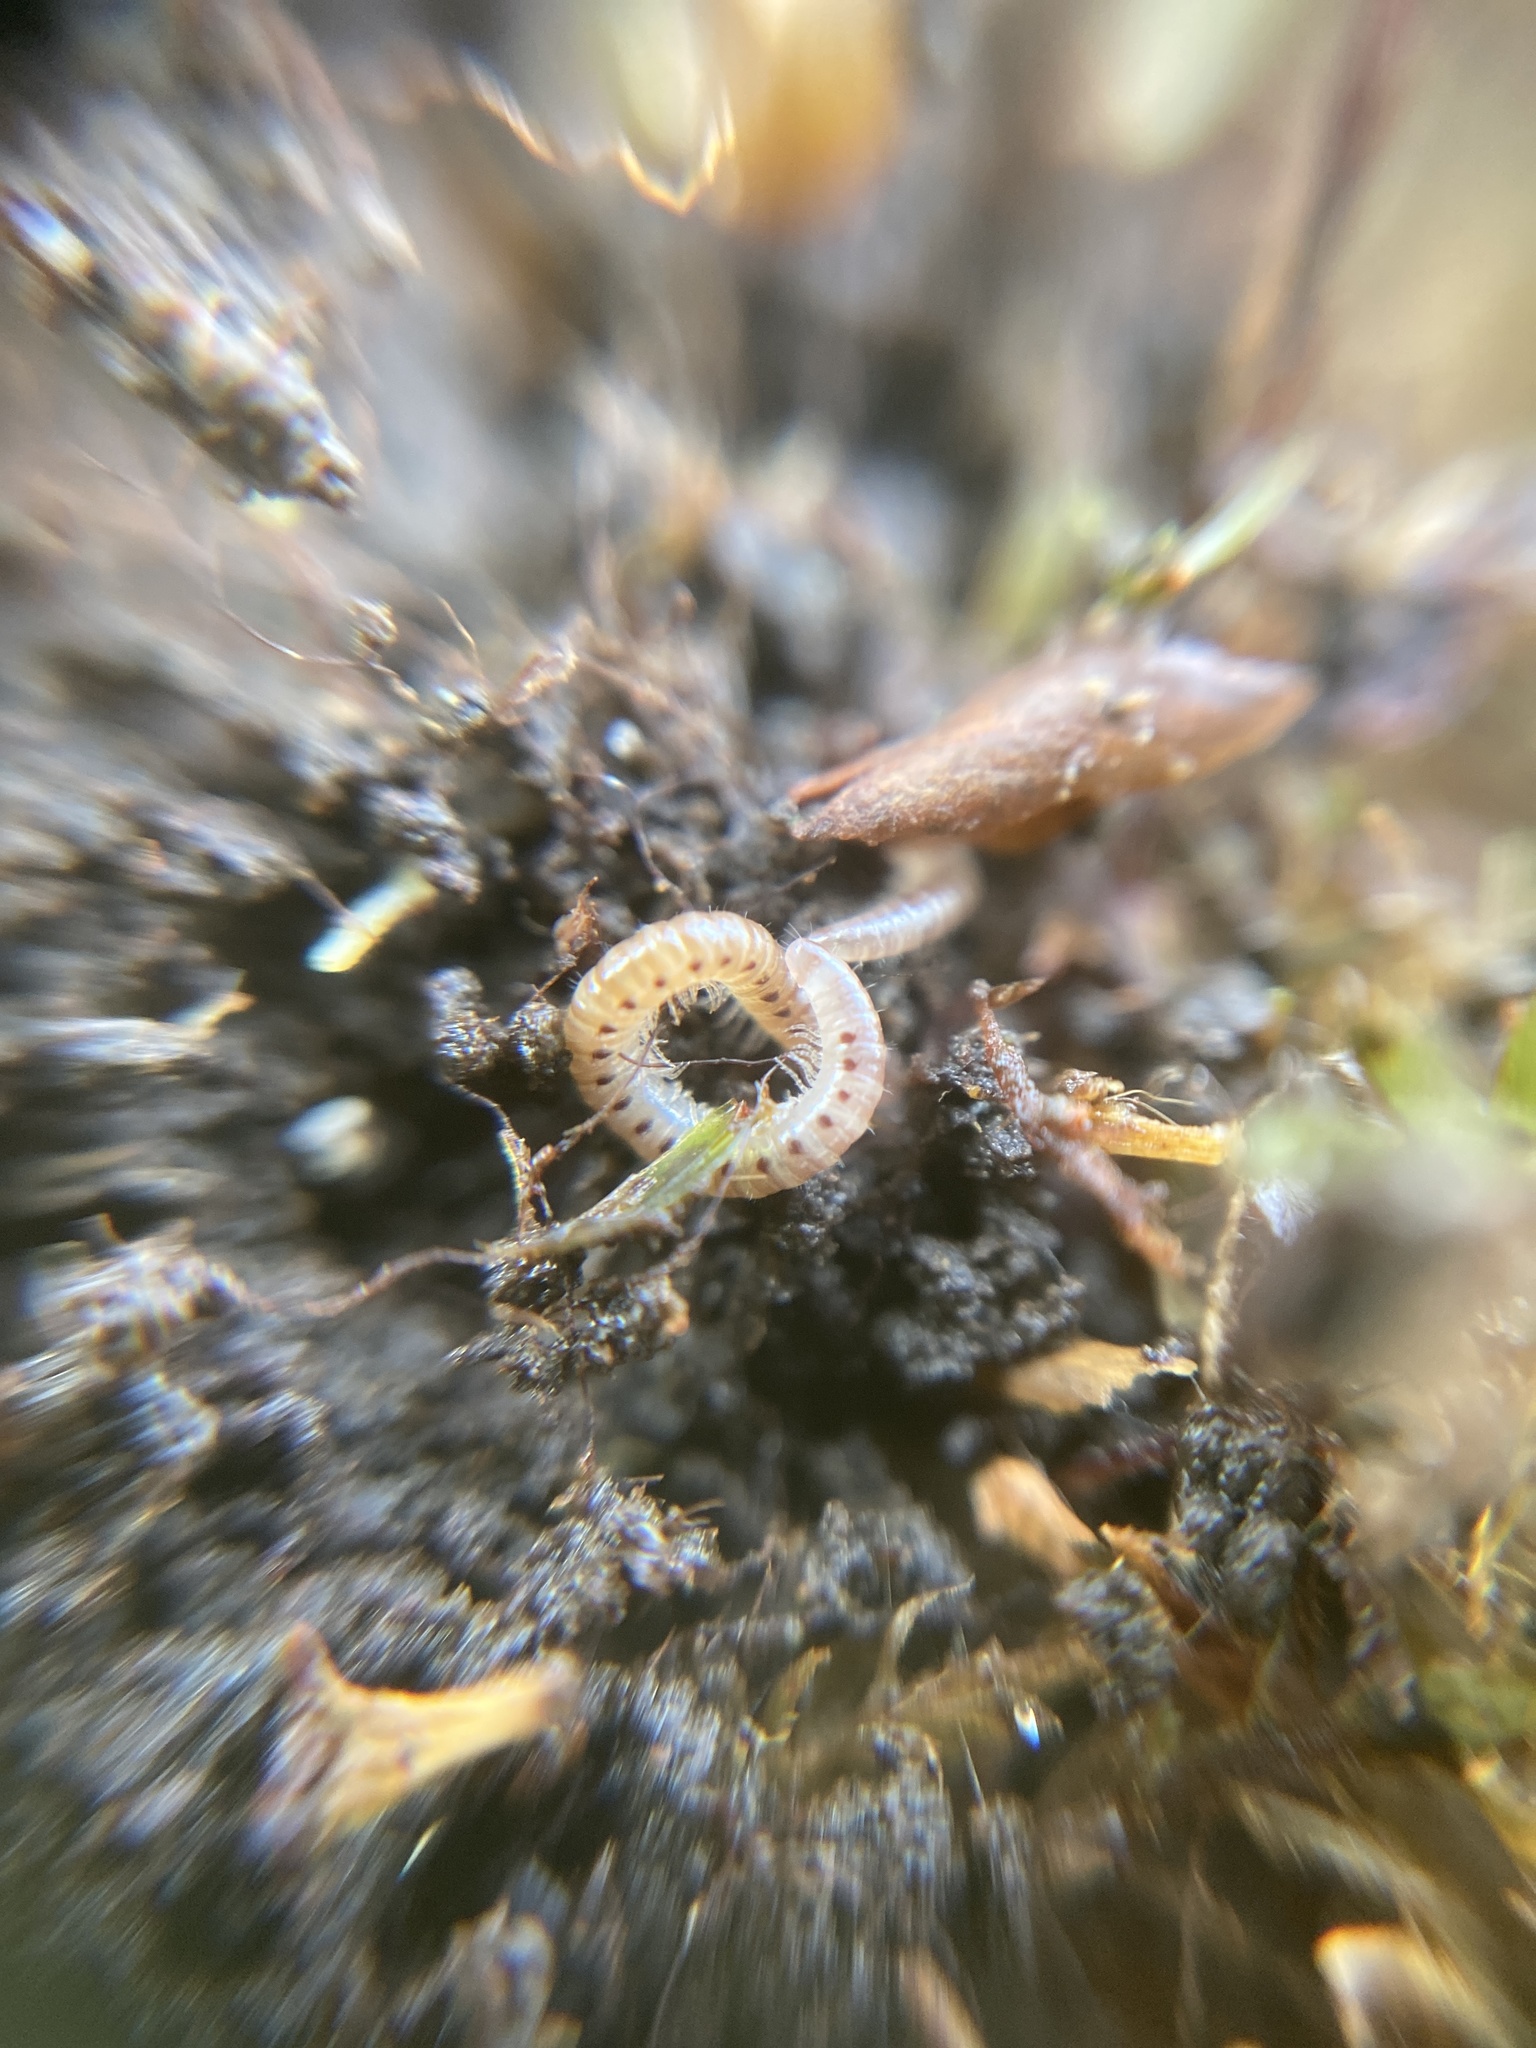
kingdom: Animalia
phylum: Arthropoda
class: Diplopoda
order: Julida
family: Blaniulidae
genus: Blaniulus
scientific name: Blaniulus guttulatus
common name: Spotted snake millipede
